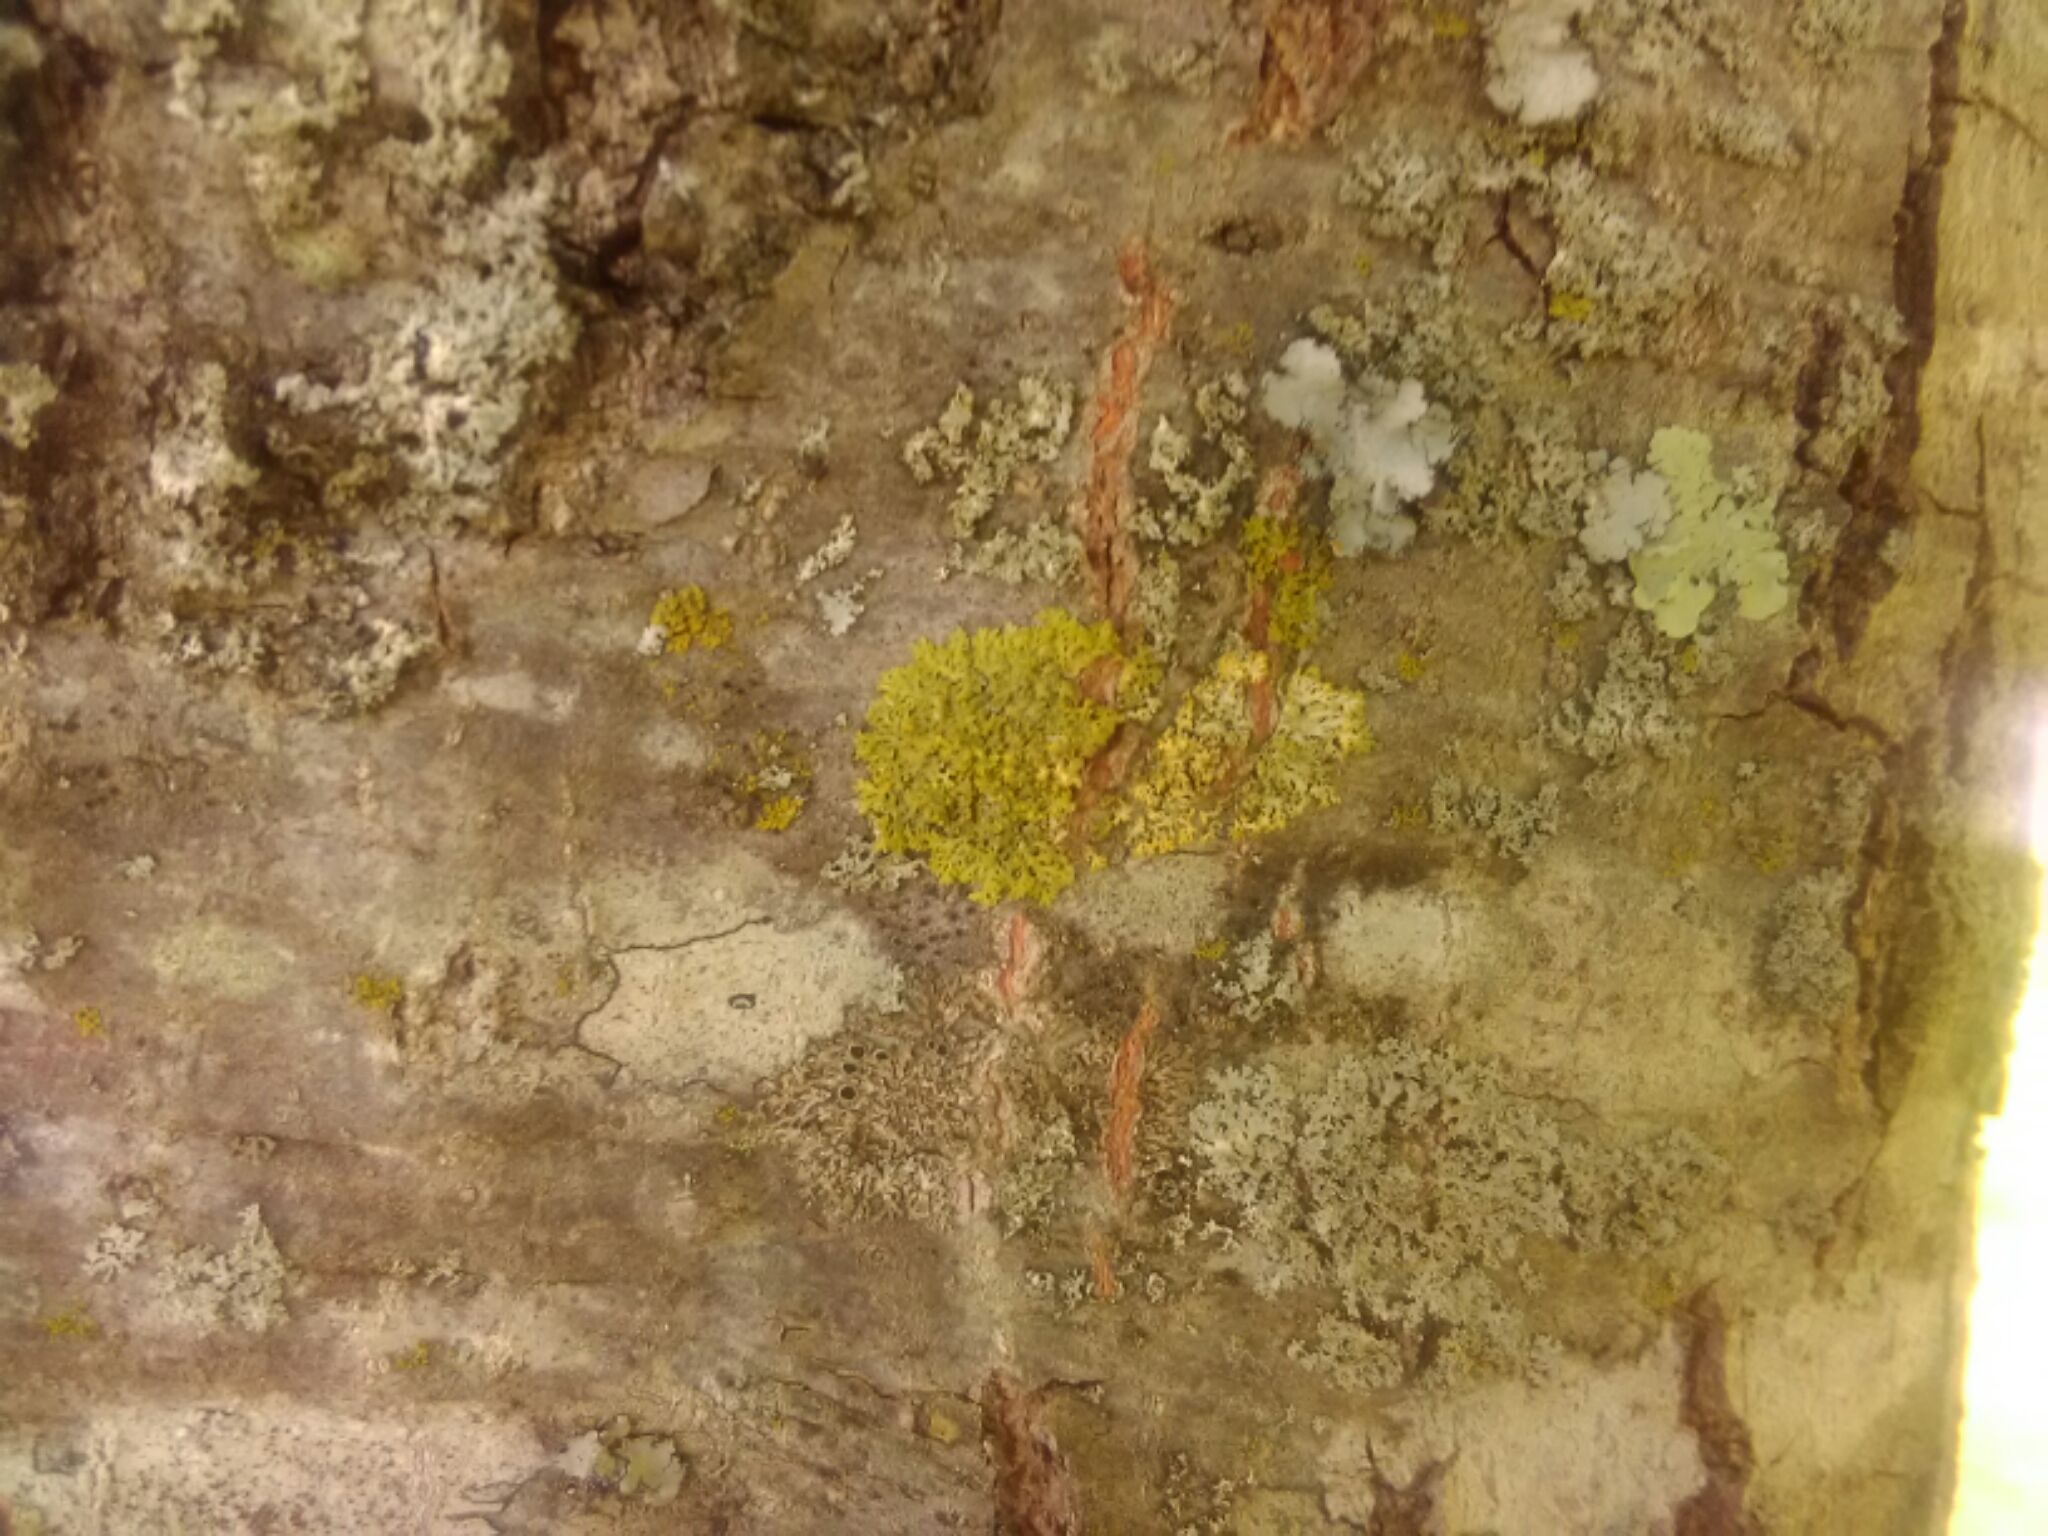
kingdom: Fungi
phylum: Ascomycota
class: Candelariomycetes
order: Candelariales
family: Candelariaceae
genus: Candelaria
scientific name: Candelaria concolor
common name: Candleflame lichen
